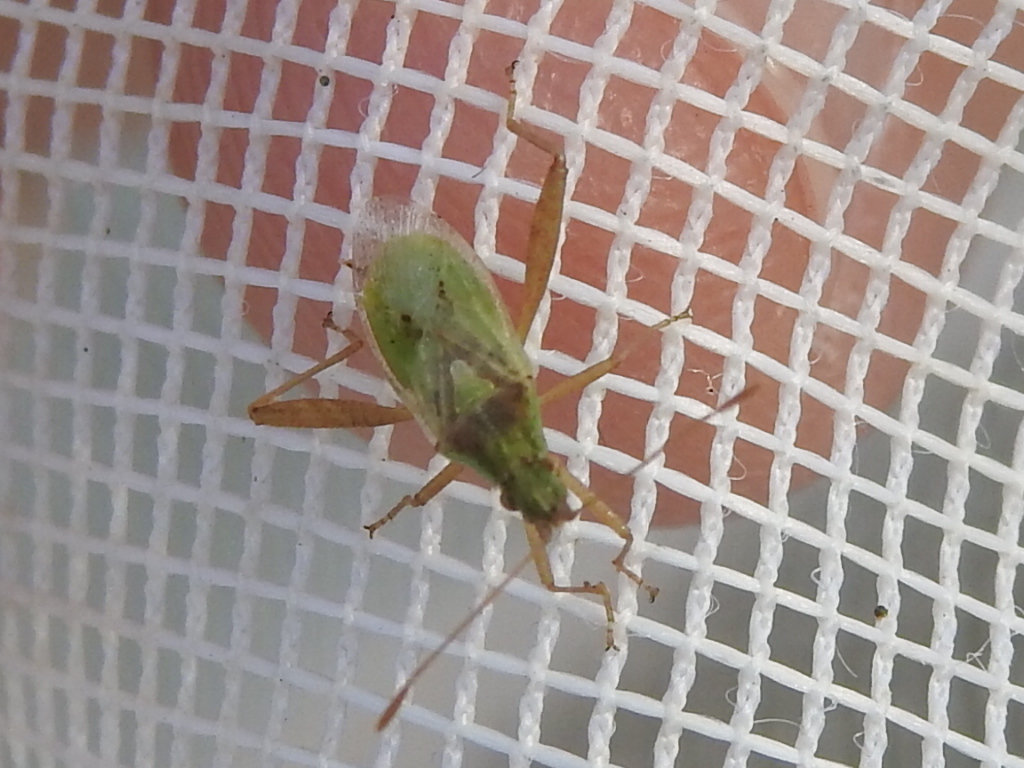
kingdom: Animalia
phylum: Arthropoda
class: Insecta
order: Hemiptera
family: Rhopalidae
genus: Harmostes
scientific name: Harmostes reflexulus
